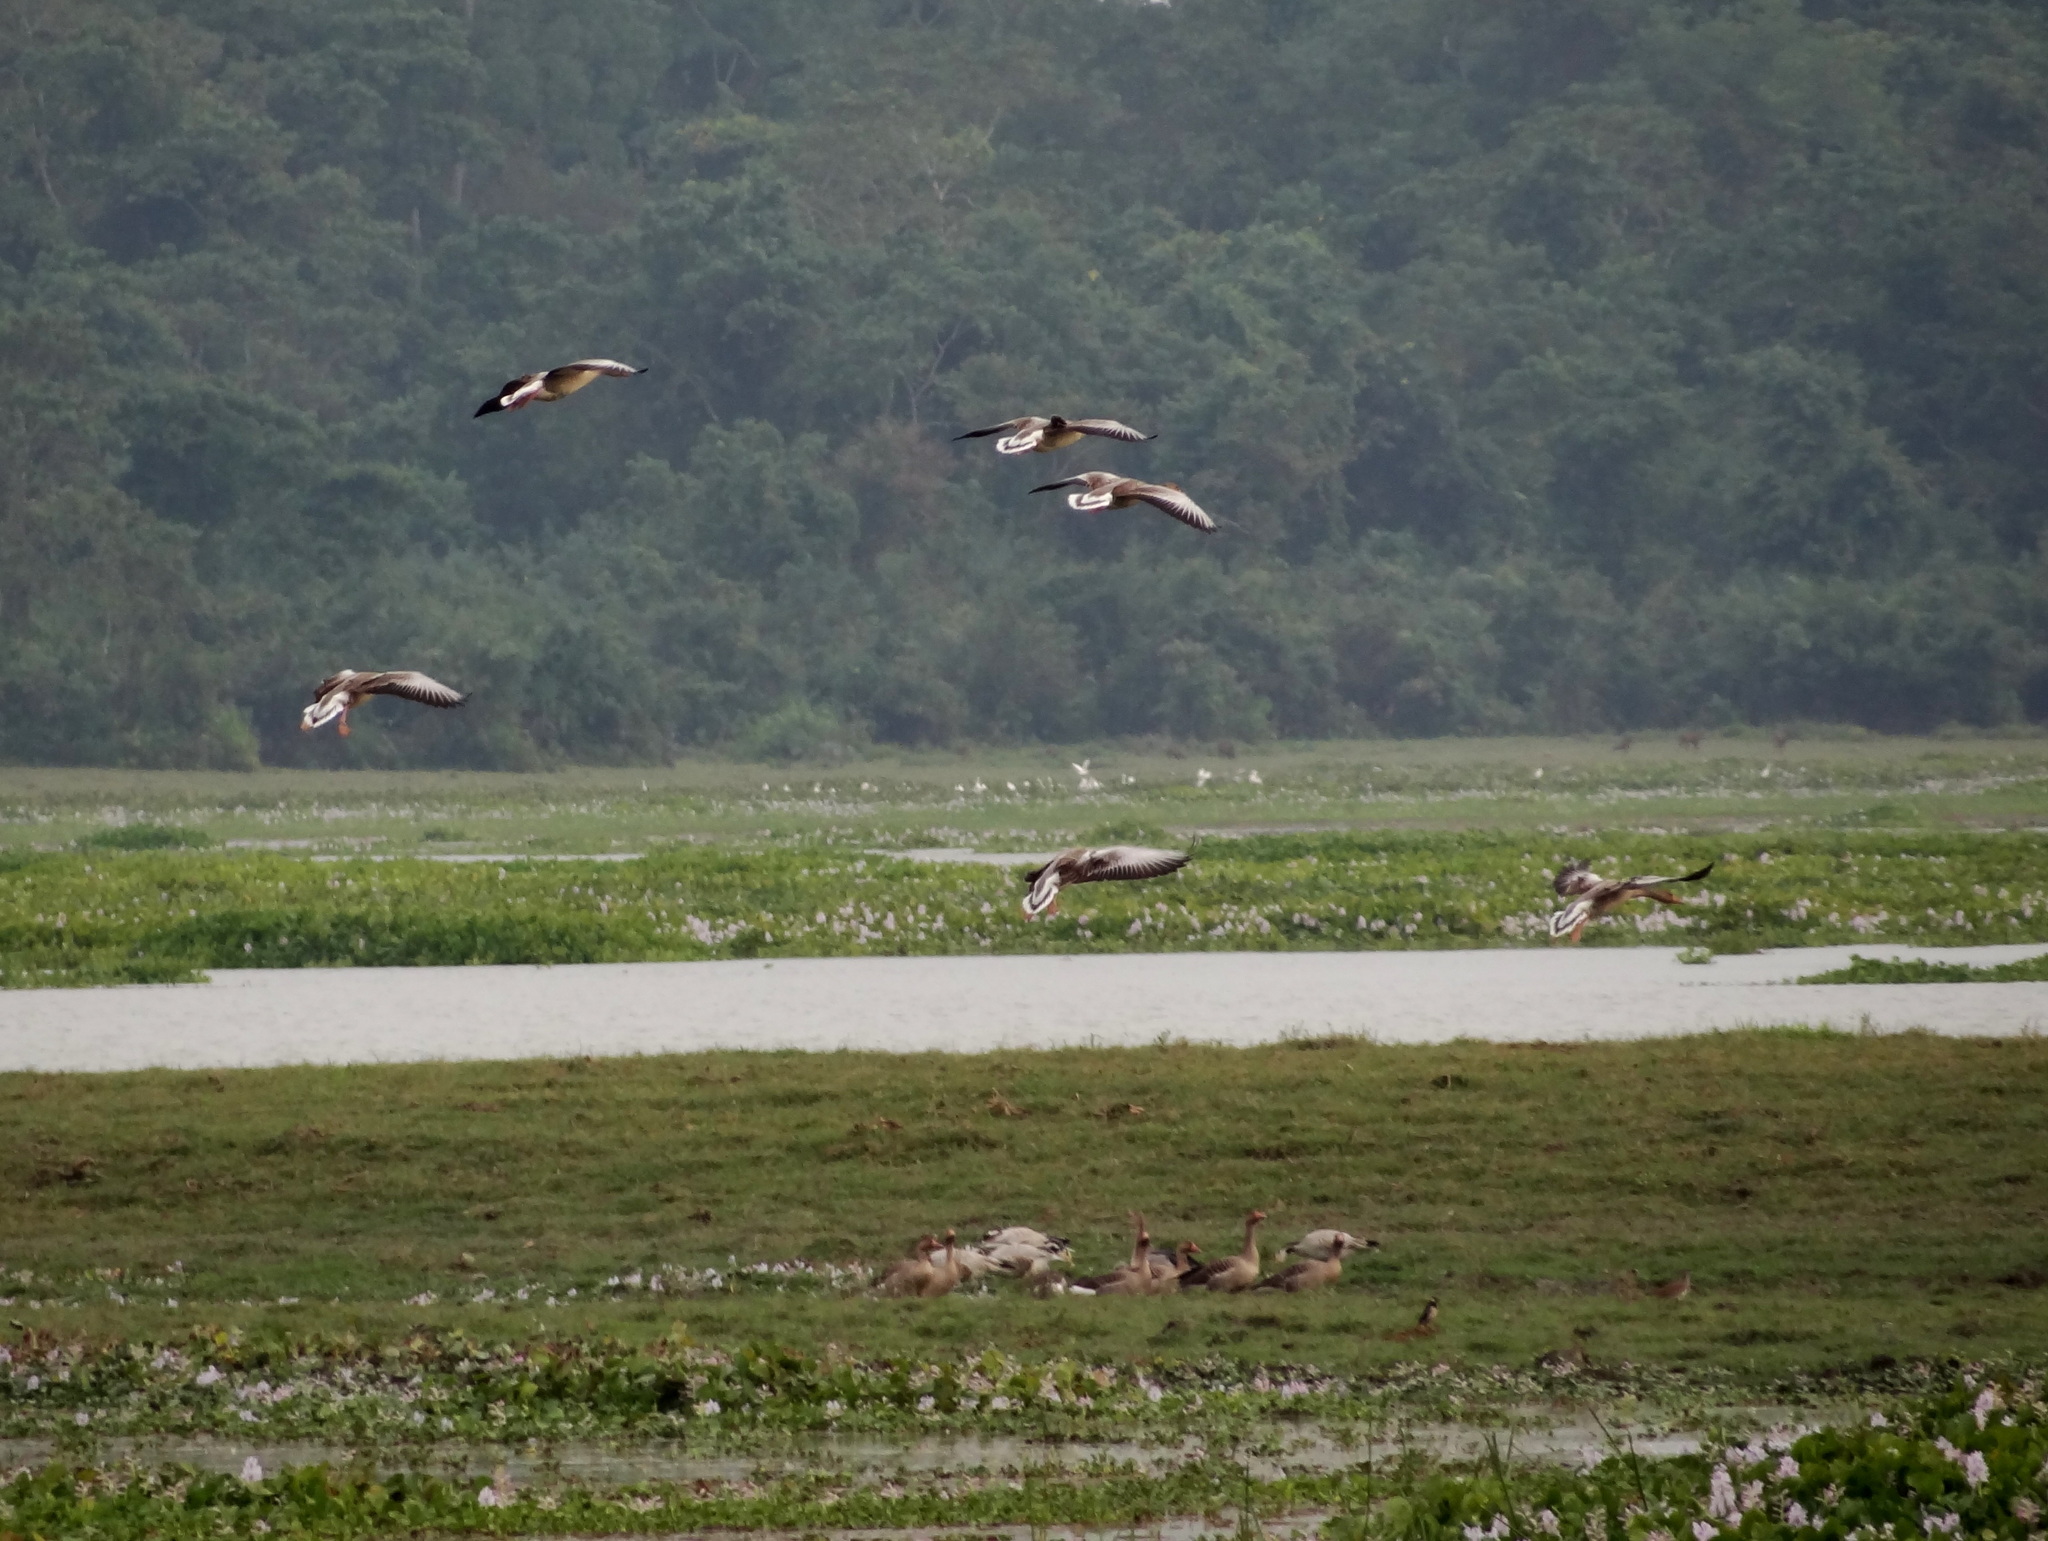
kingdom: Animalia
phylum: Chordata
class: Aves
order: Anseriformes
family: Anatidae
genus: Anser
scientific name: Anser anser
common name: Greylag goose
